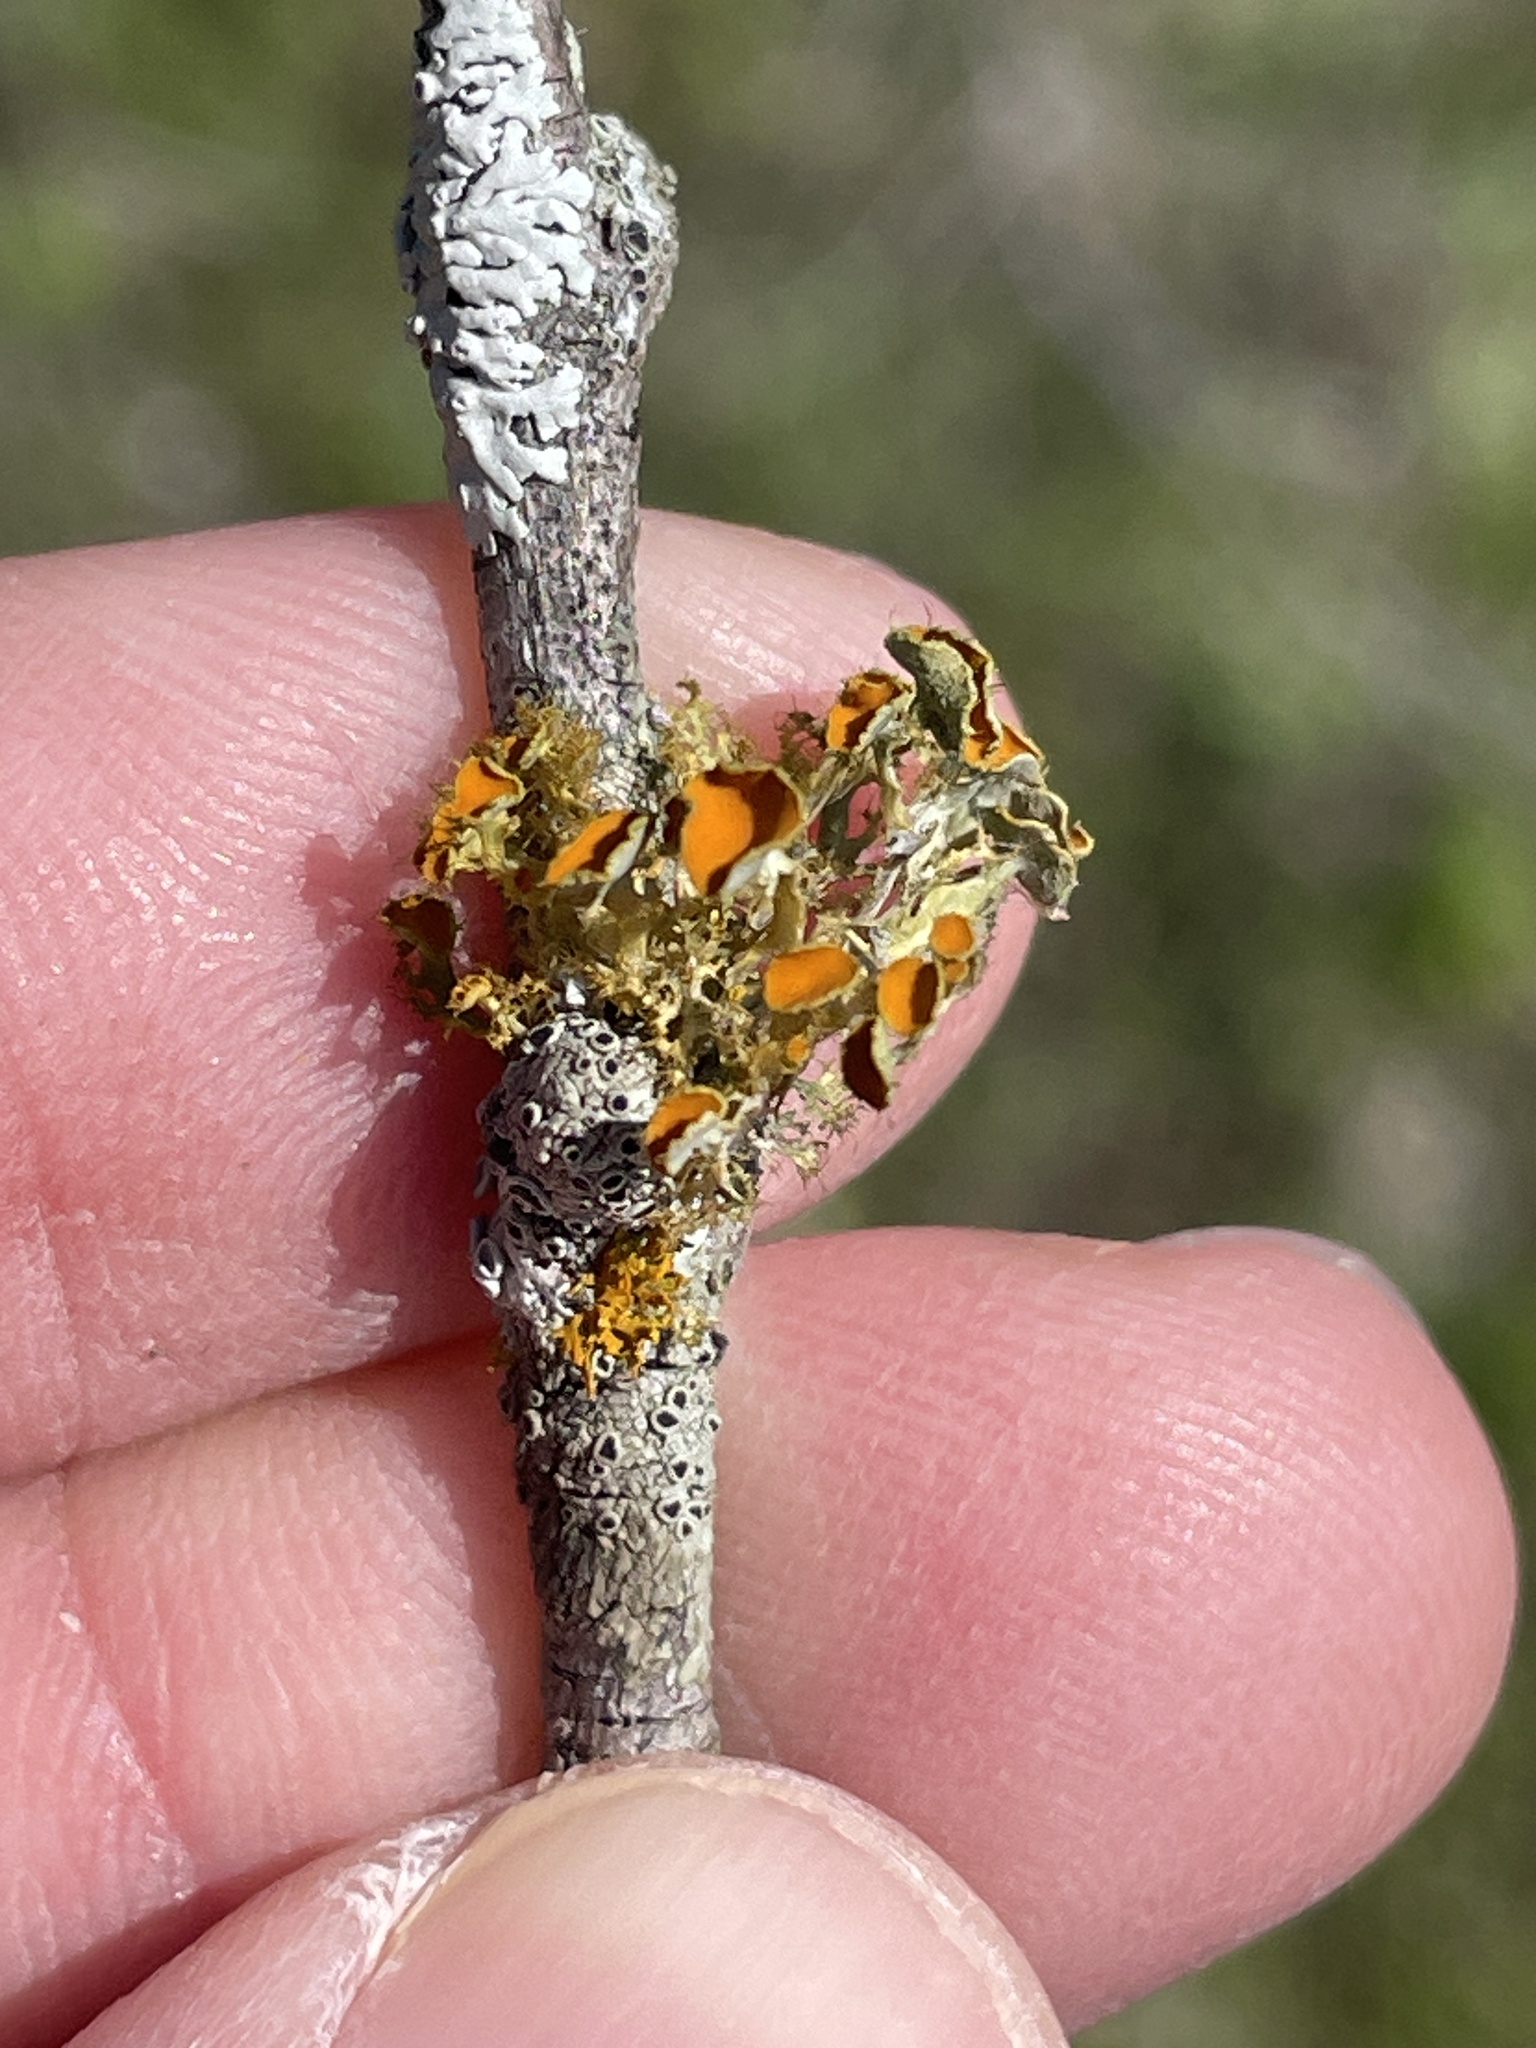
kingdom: Fungi
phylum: Ascomycota
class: Lecanoromycetes
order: Teloschistales
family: Teloschistaceae
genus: Niorma
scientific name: Niorma chrysophthalma
